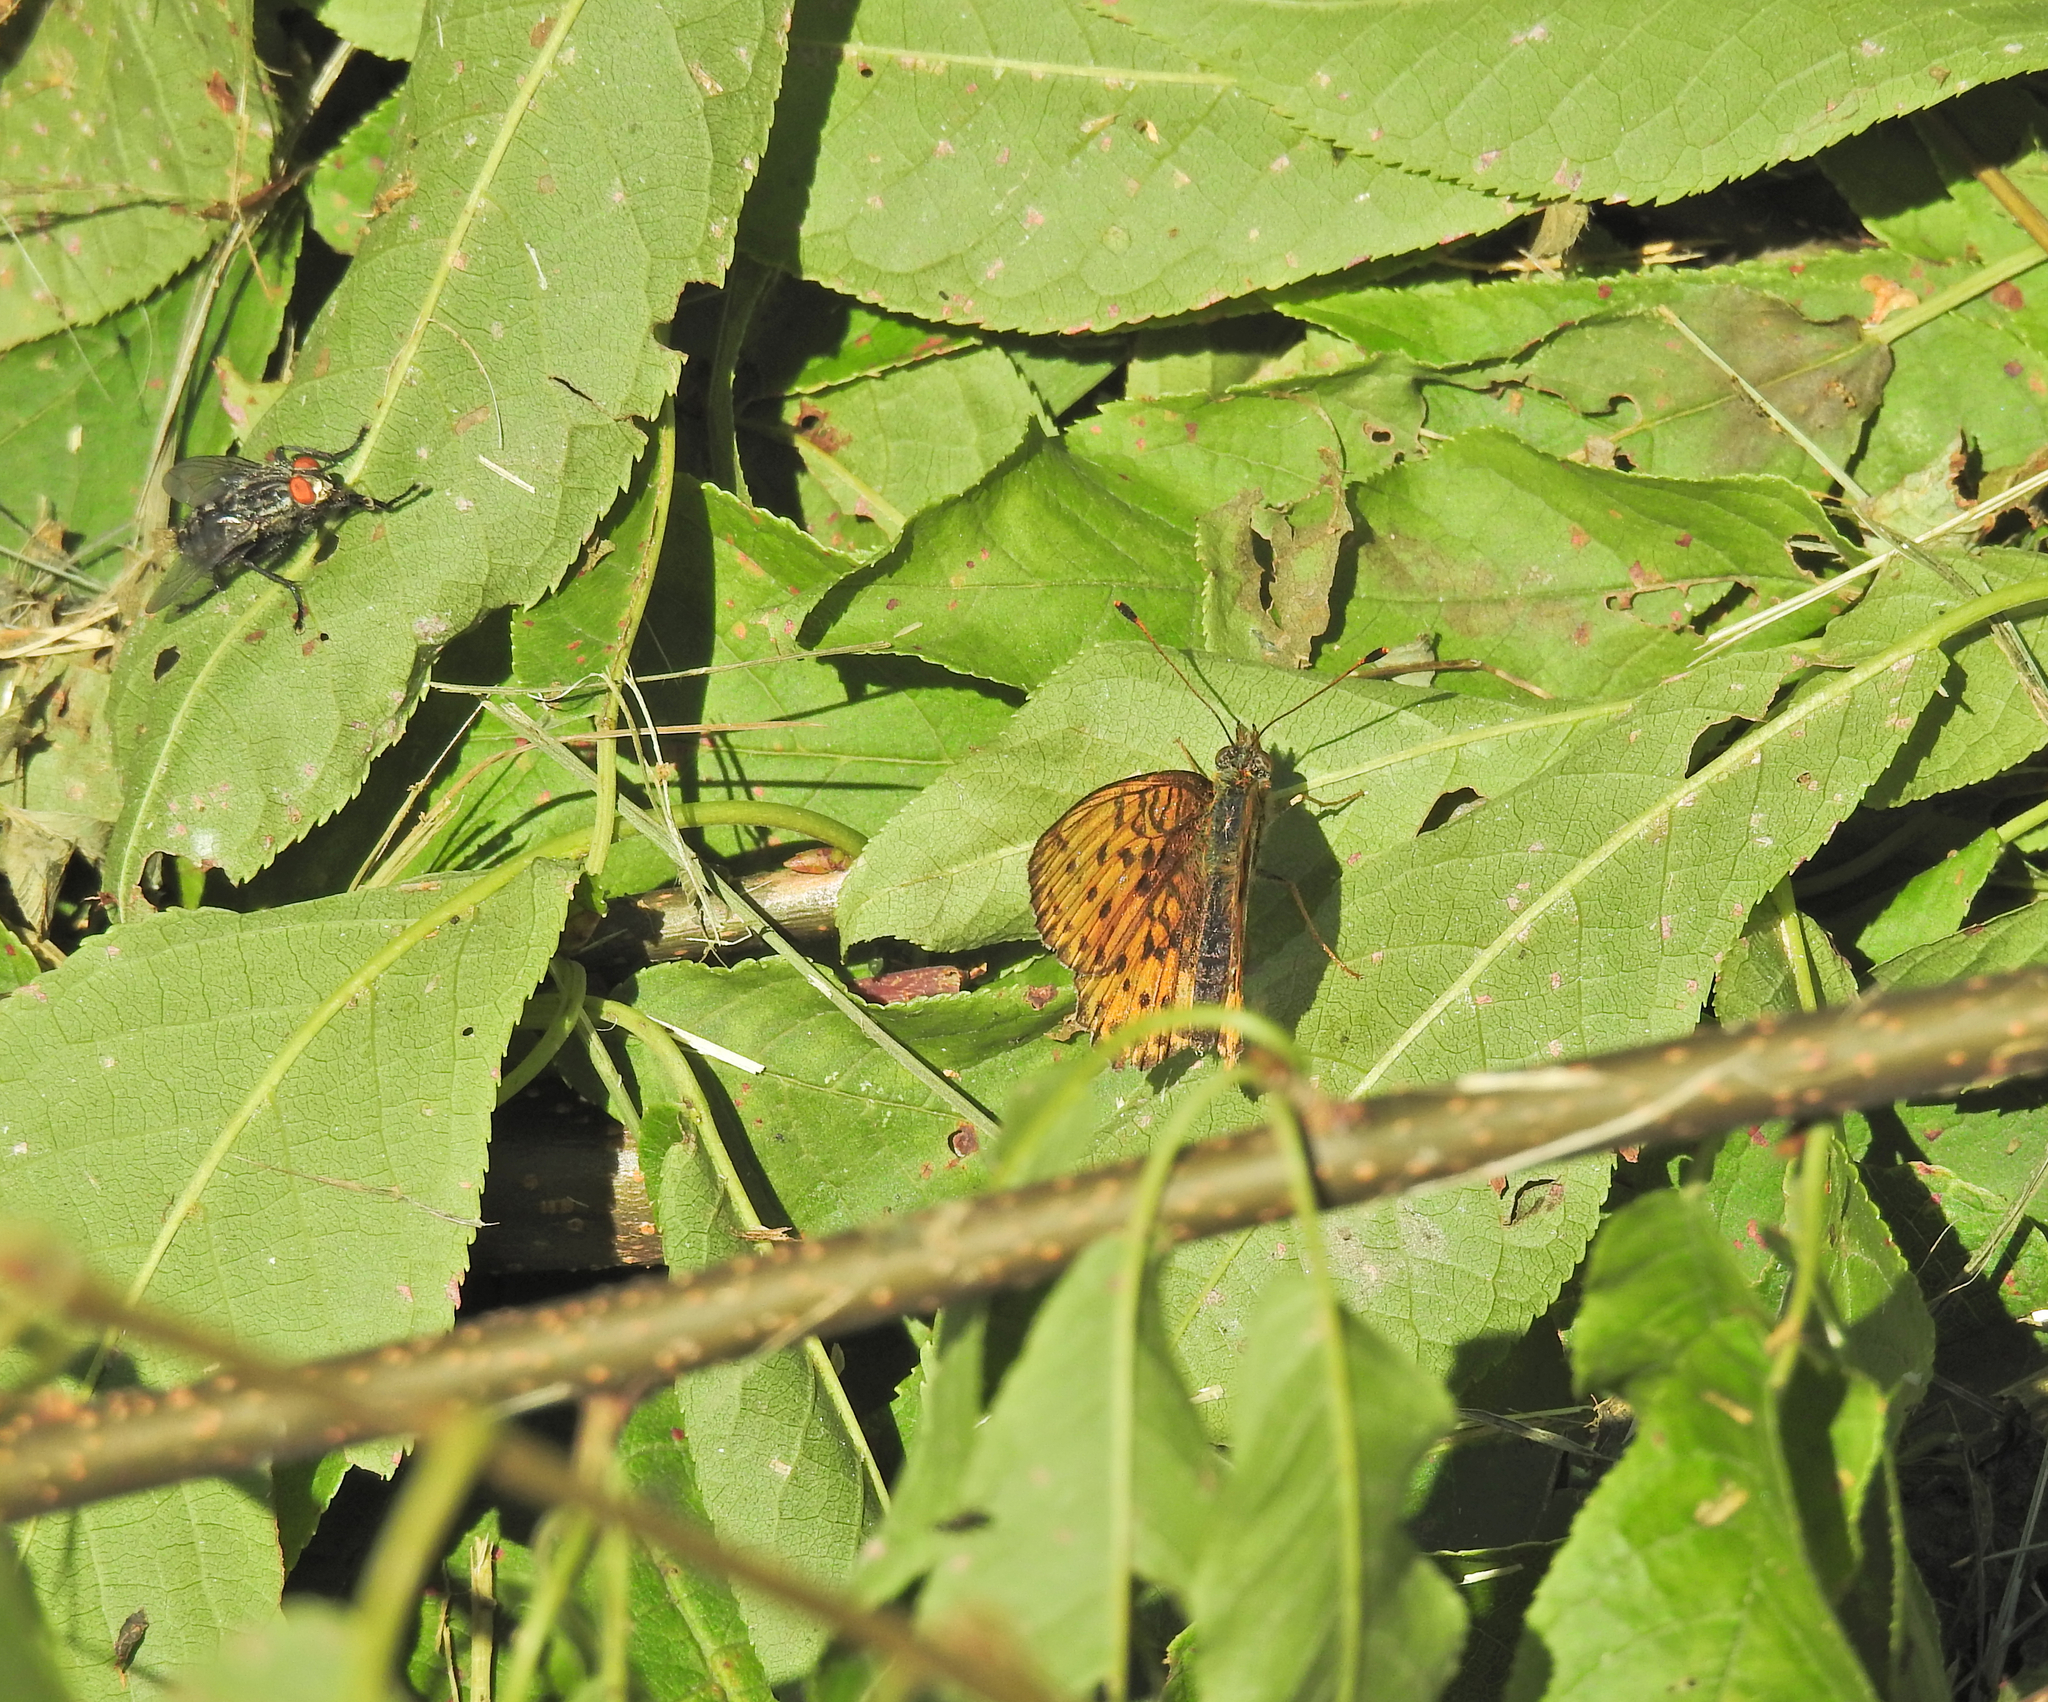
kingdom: Animalia
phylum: Arthropoda
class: Insecta
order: Diptera
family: Sarcophagidae
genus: Sarcophaga
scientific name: Sarcophaga
